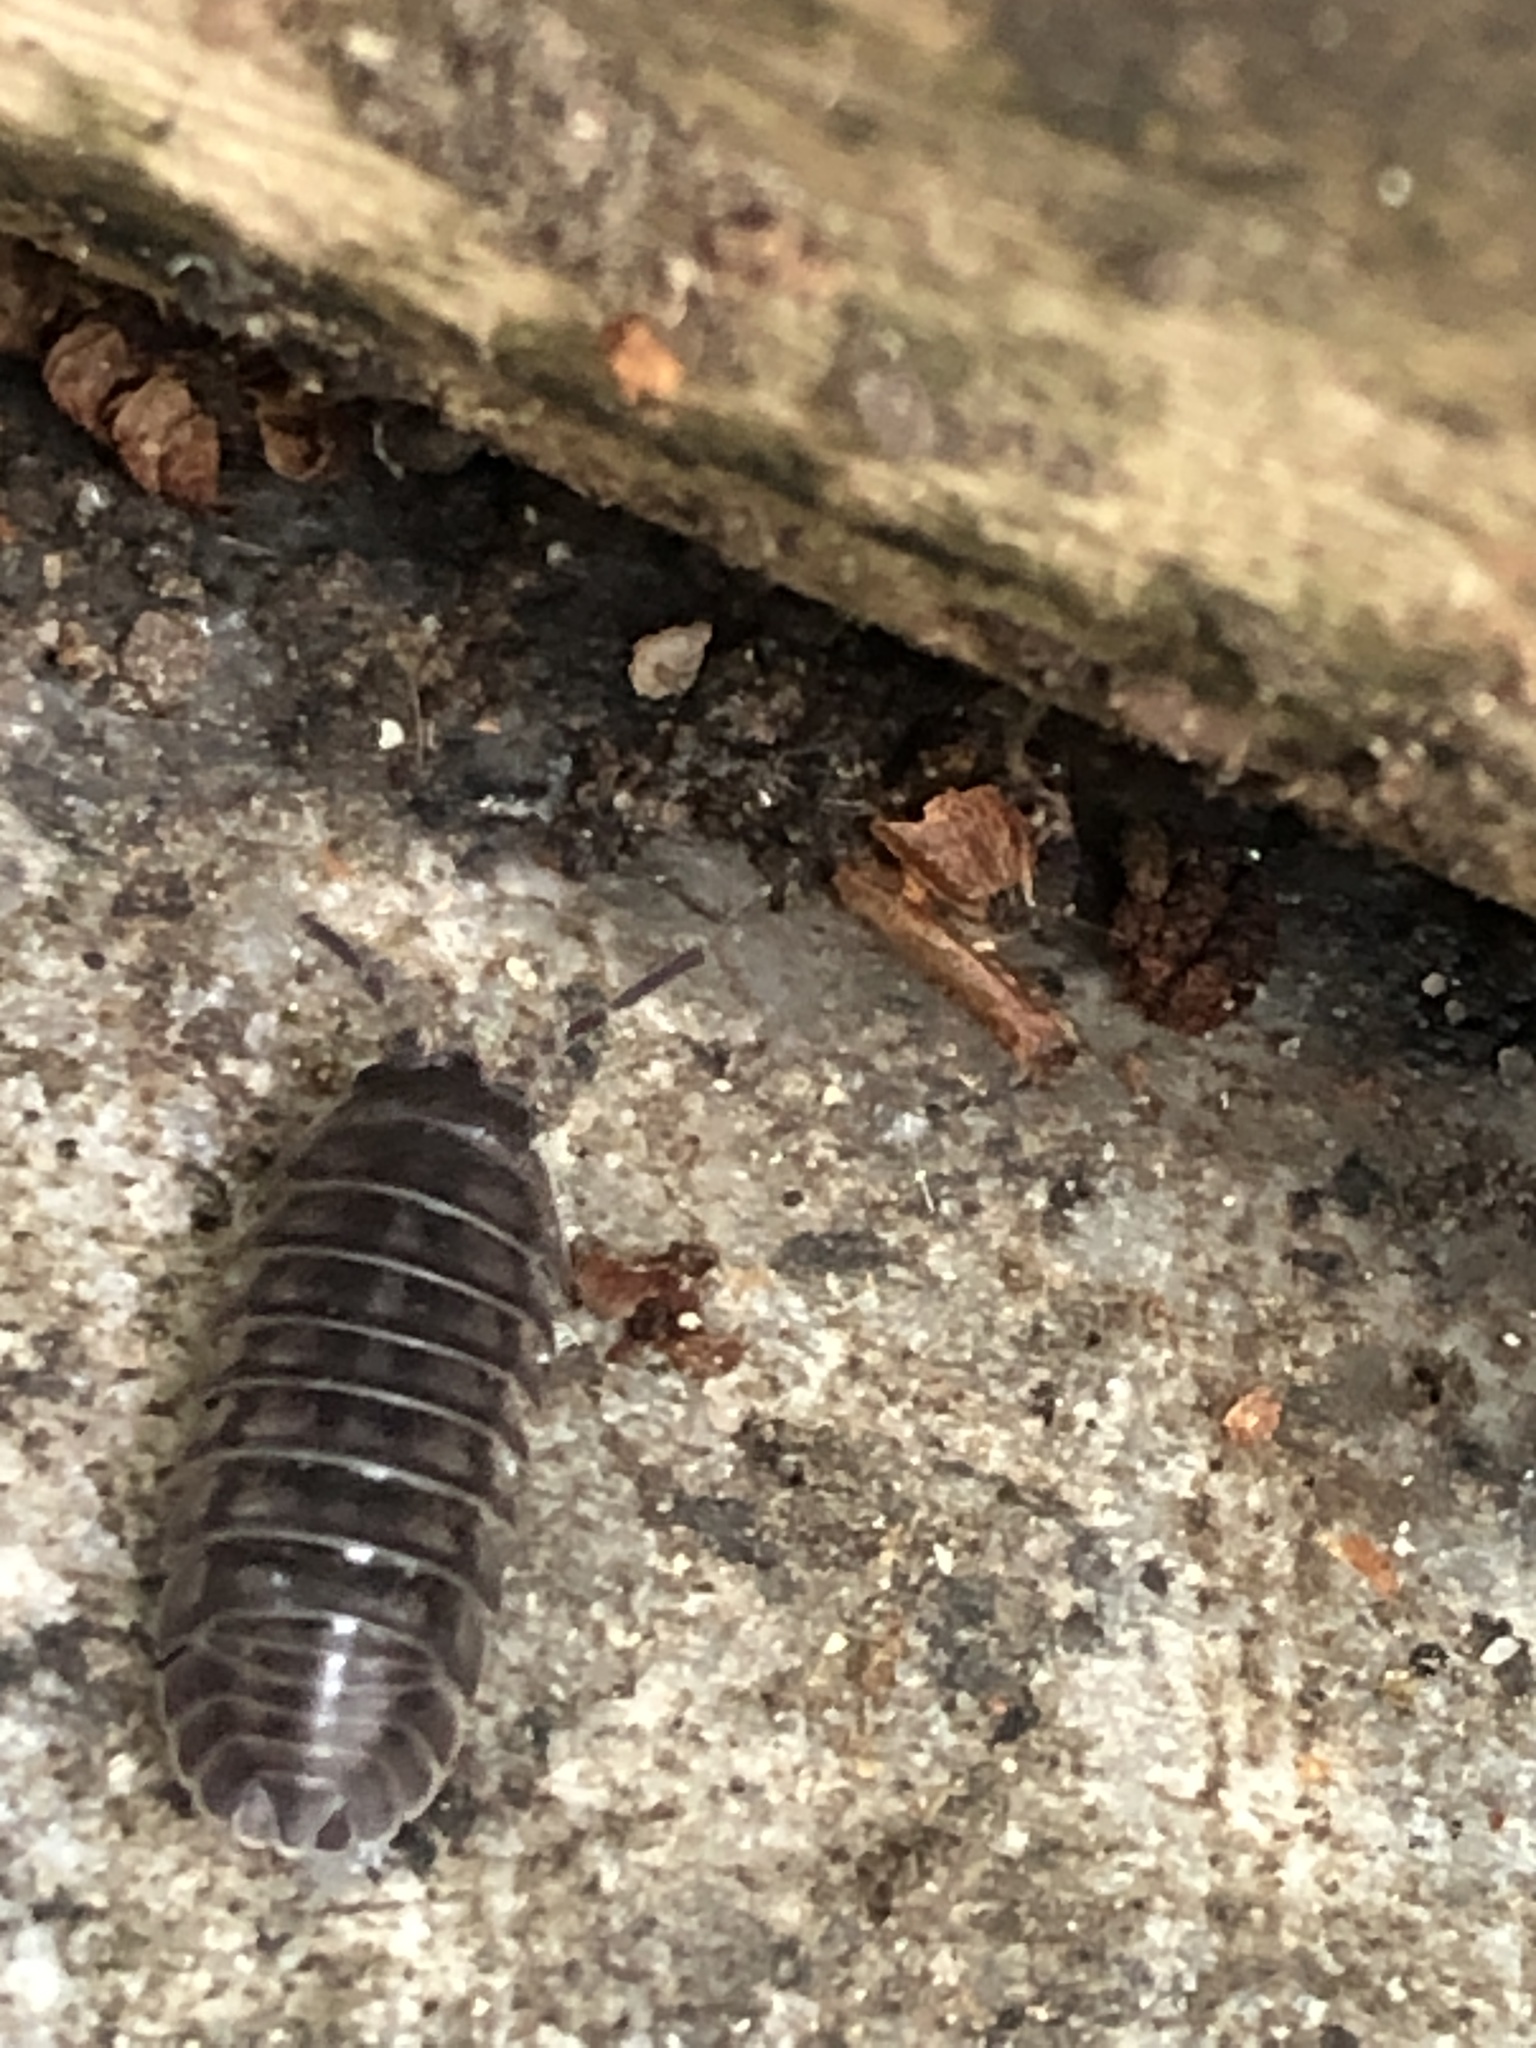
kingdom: Animalia
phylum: Arthropoda
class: Malacostraca
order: Isopoda
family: Armadillidiidae
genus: Armadillidium
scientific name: Armadillidium nasatum
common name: Isopod
